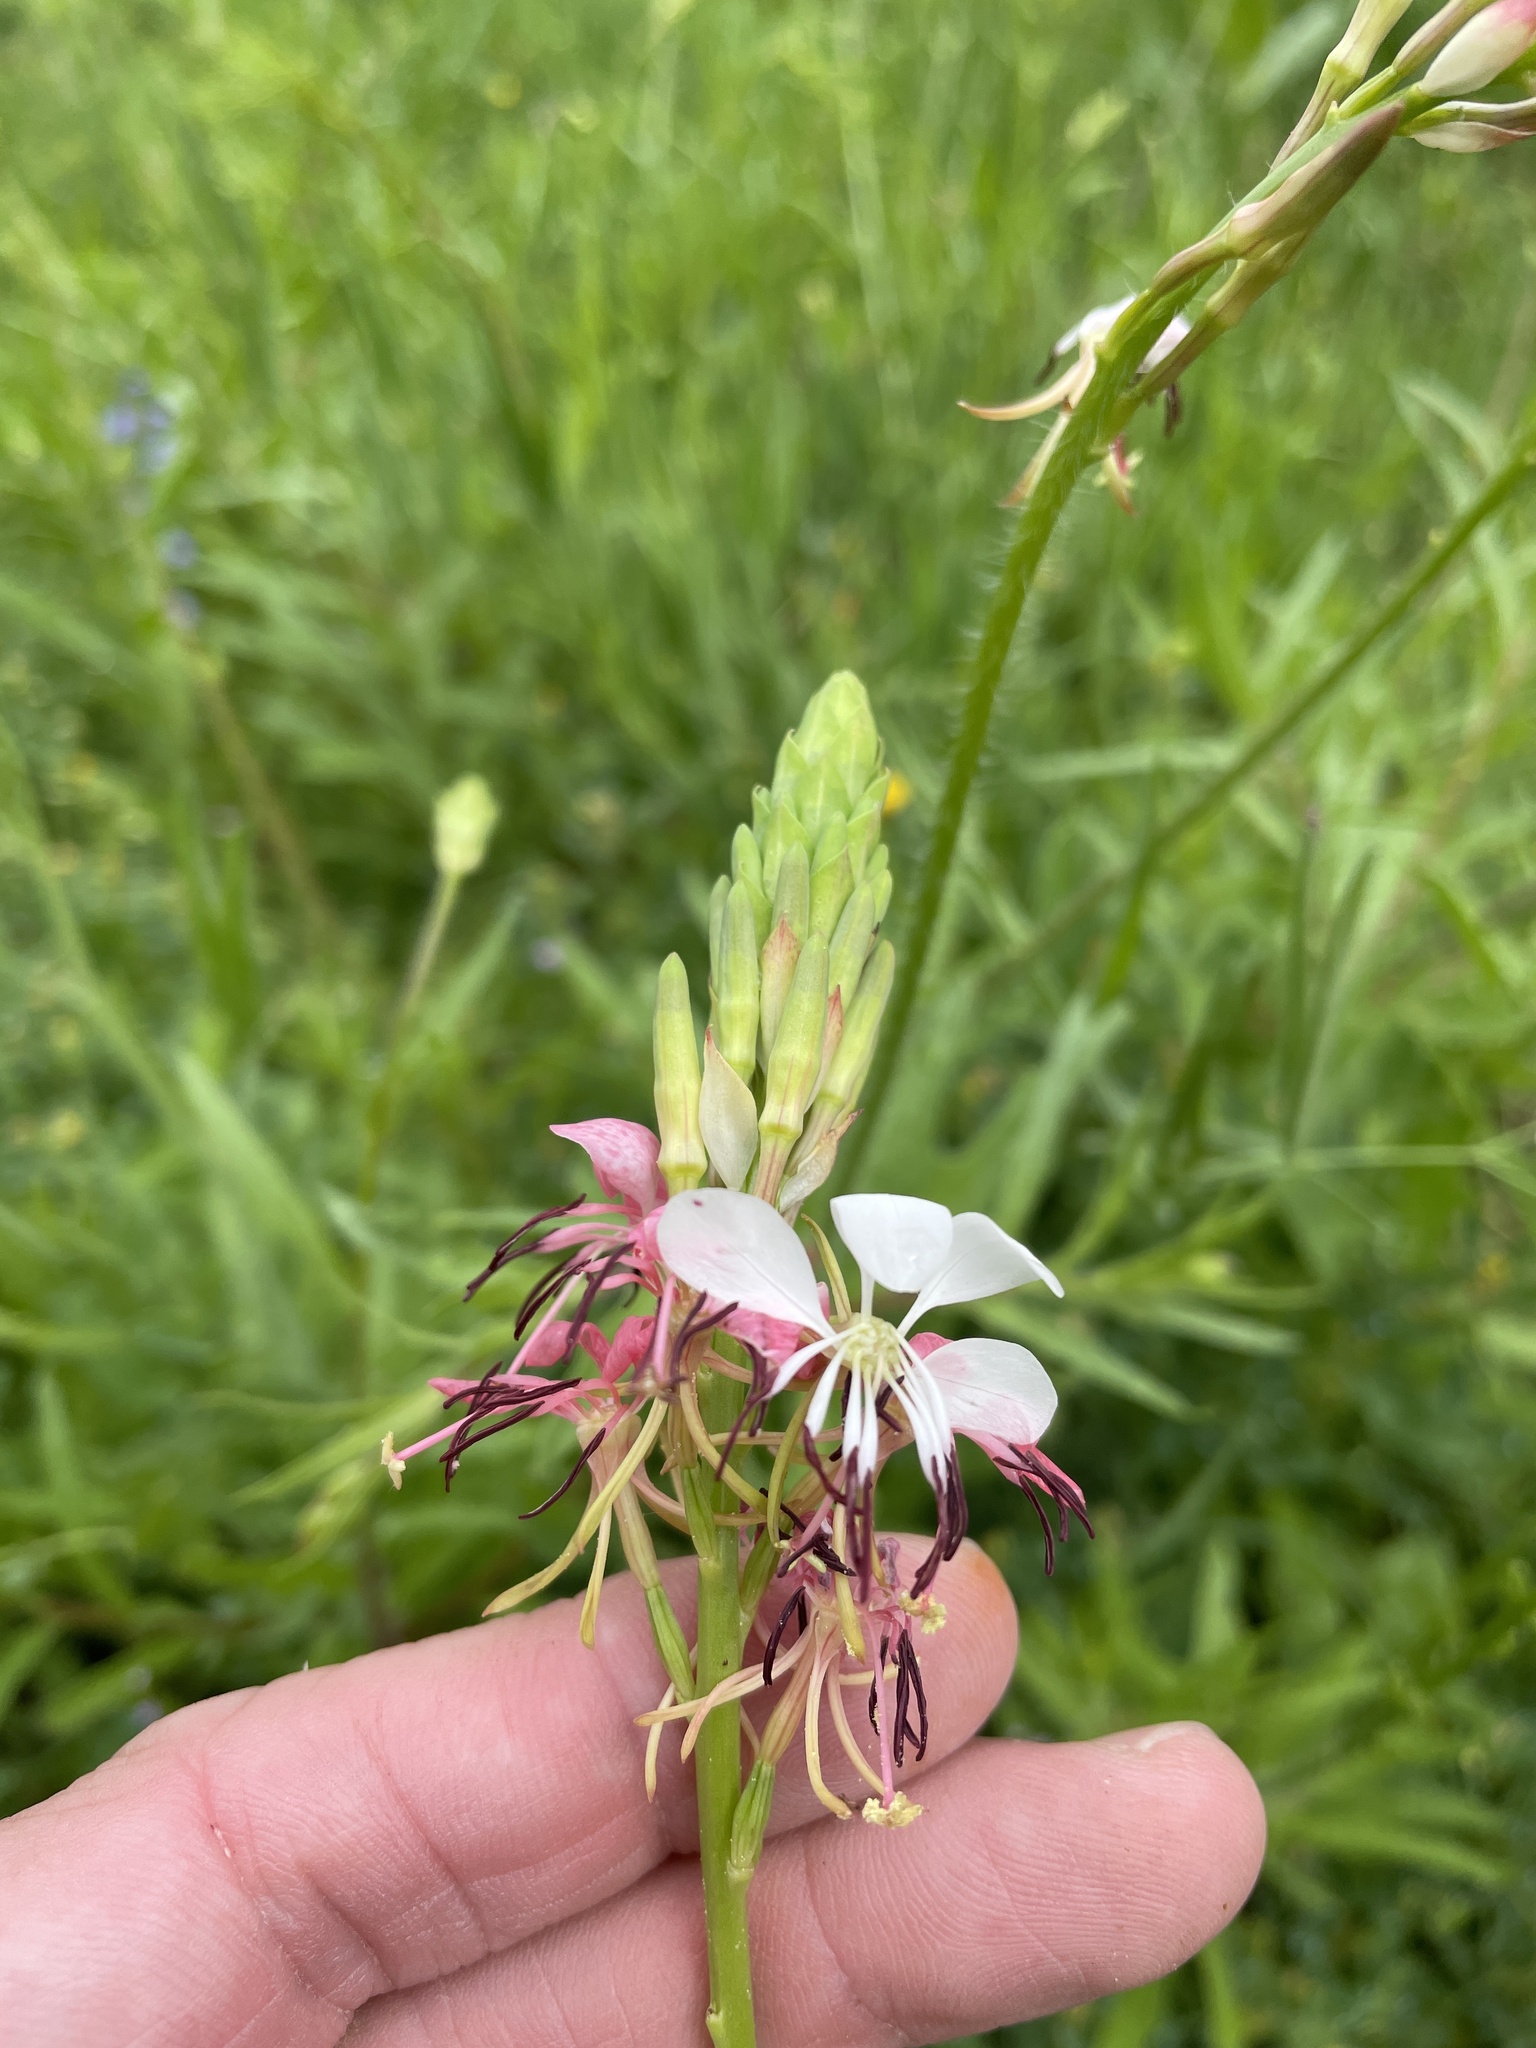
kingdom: Plantae
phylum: Tracheophyta
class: Magnoliopsida
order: Myrtales
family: Onagraceae
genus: Oenothera
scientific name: Oenothera suffulta
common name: Kisses
